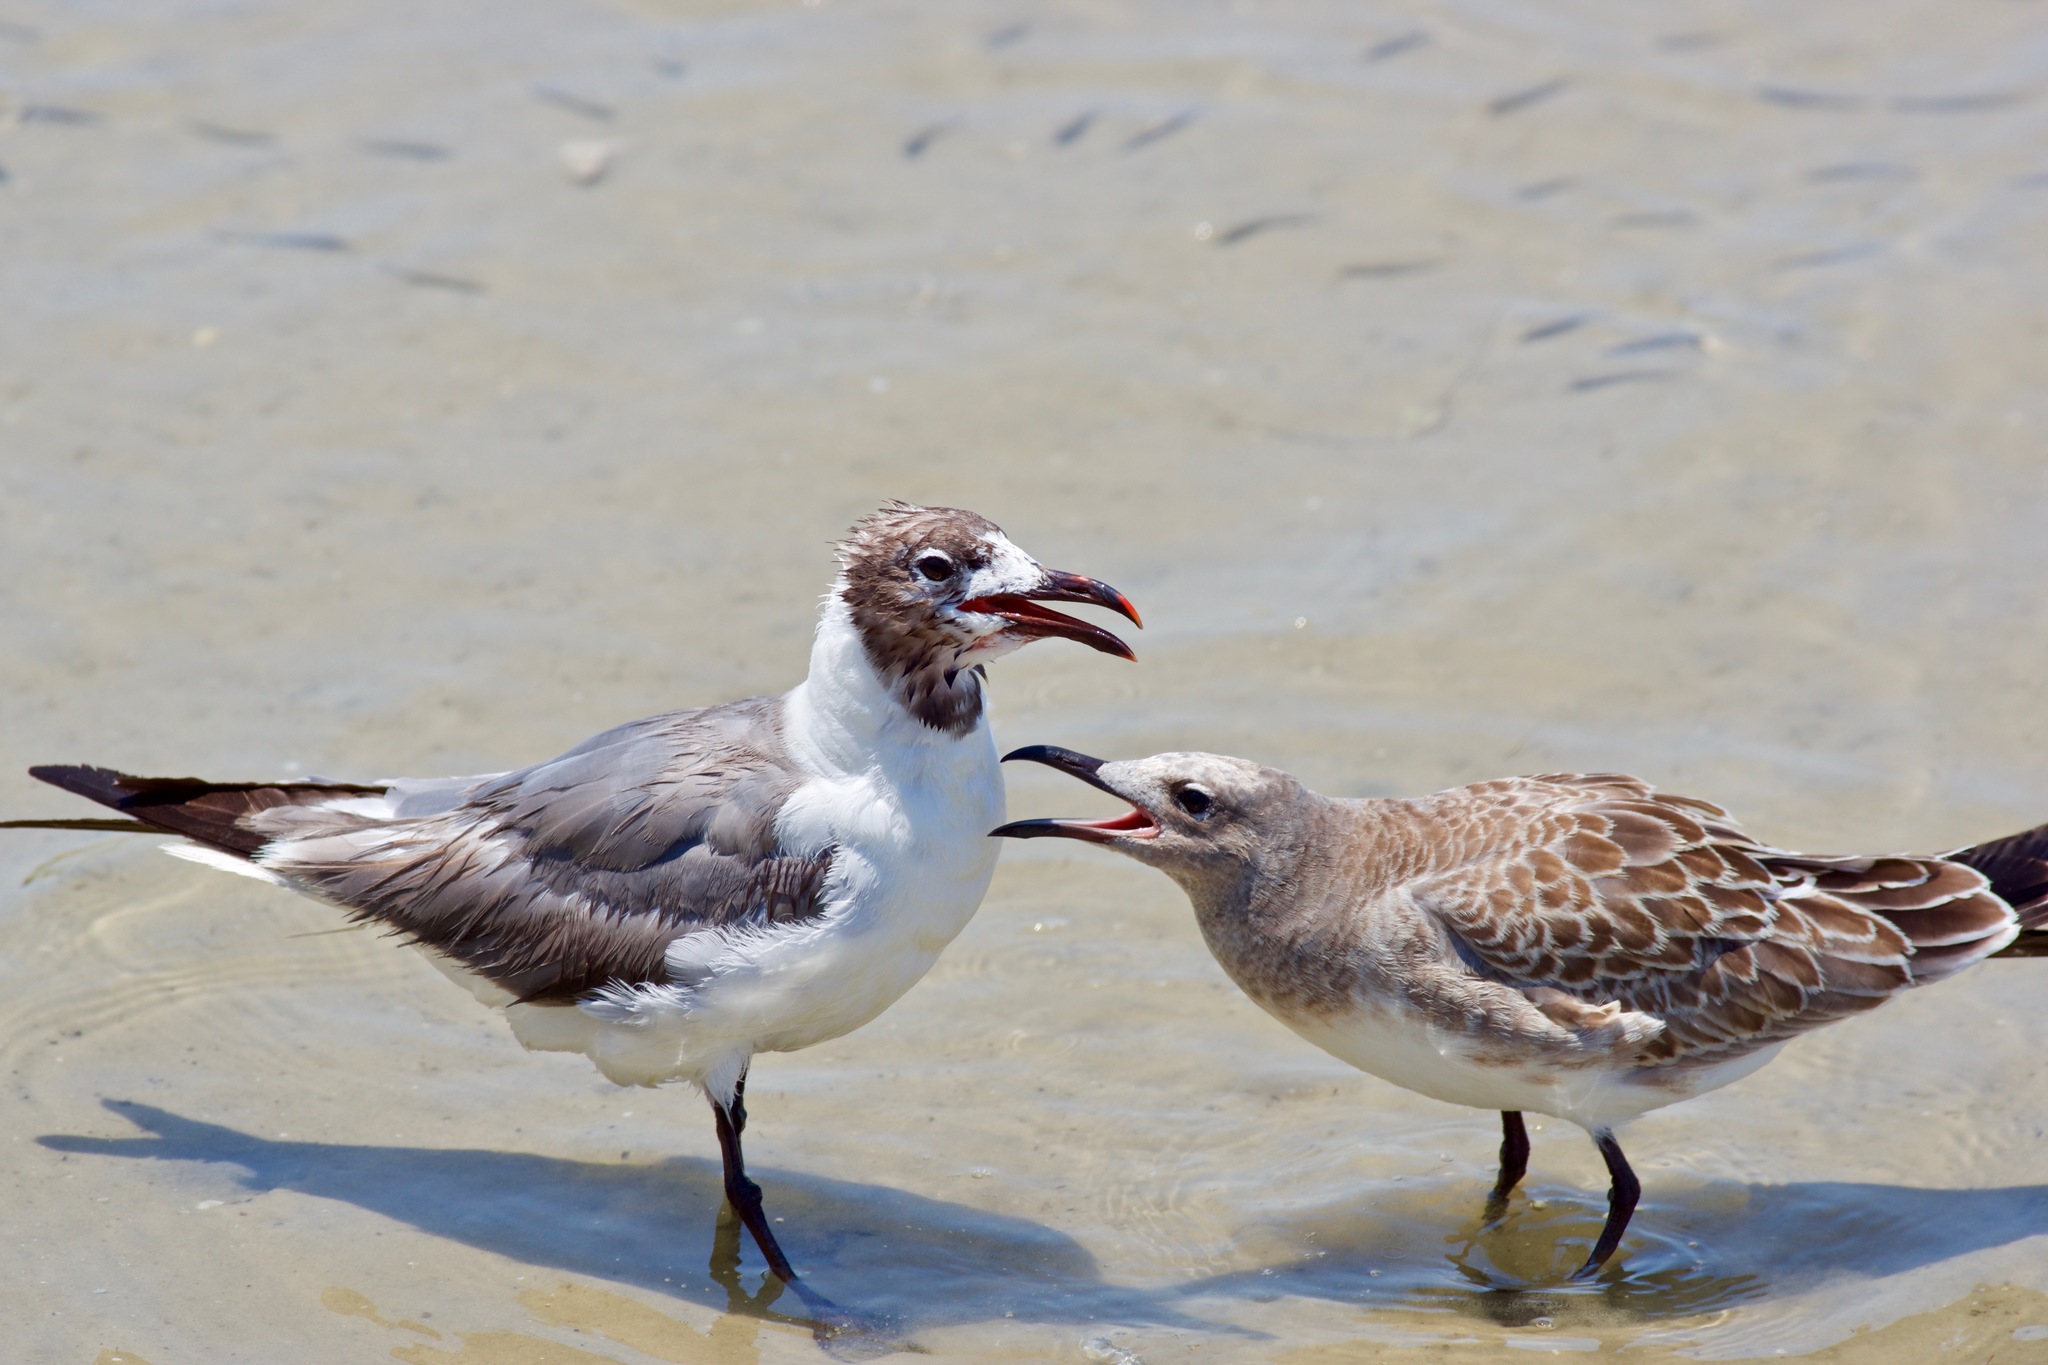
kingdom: Animalia
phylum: Chordata
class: Aves
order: Charadriiformes
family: Laridae
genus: Leucophaeus
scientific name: Leucophaeus atricilla
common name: Laughing gull
